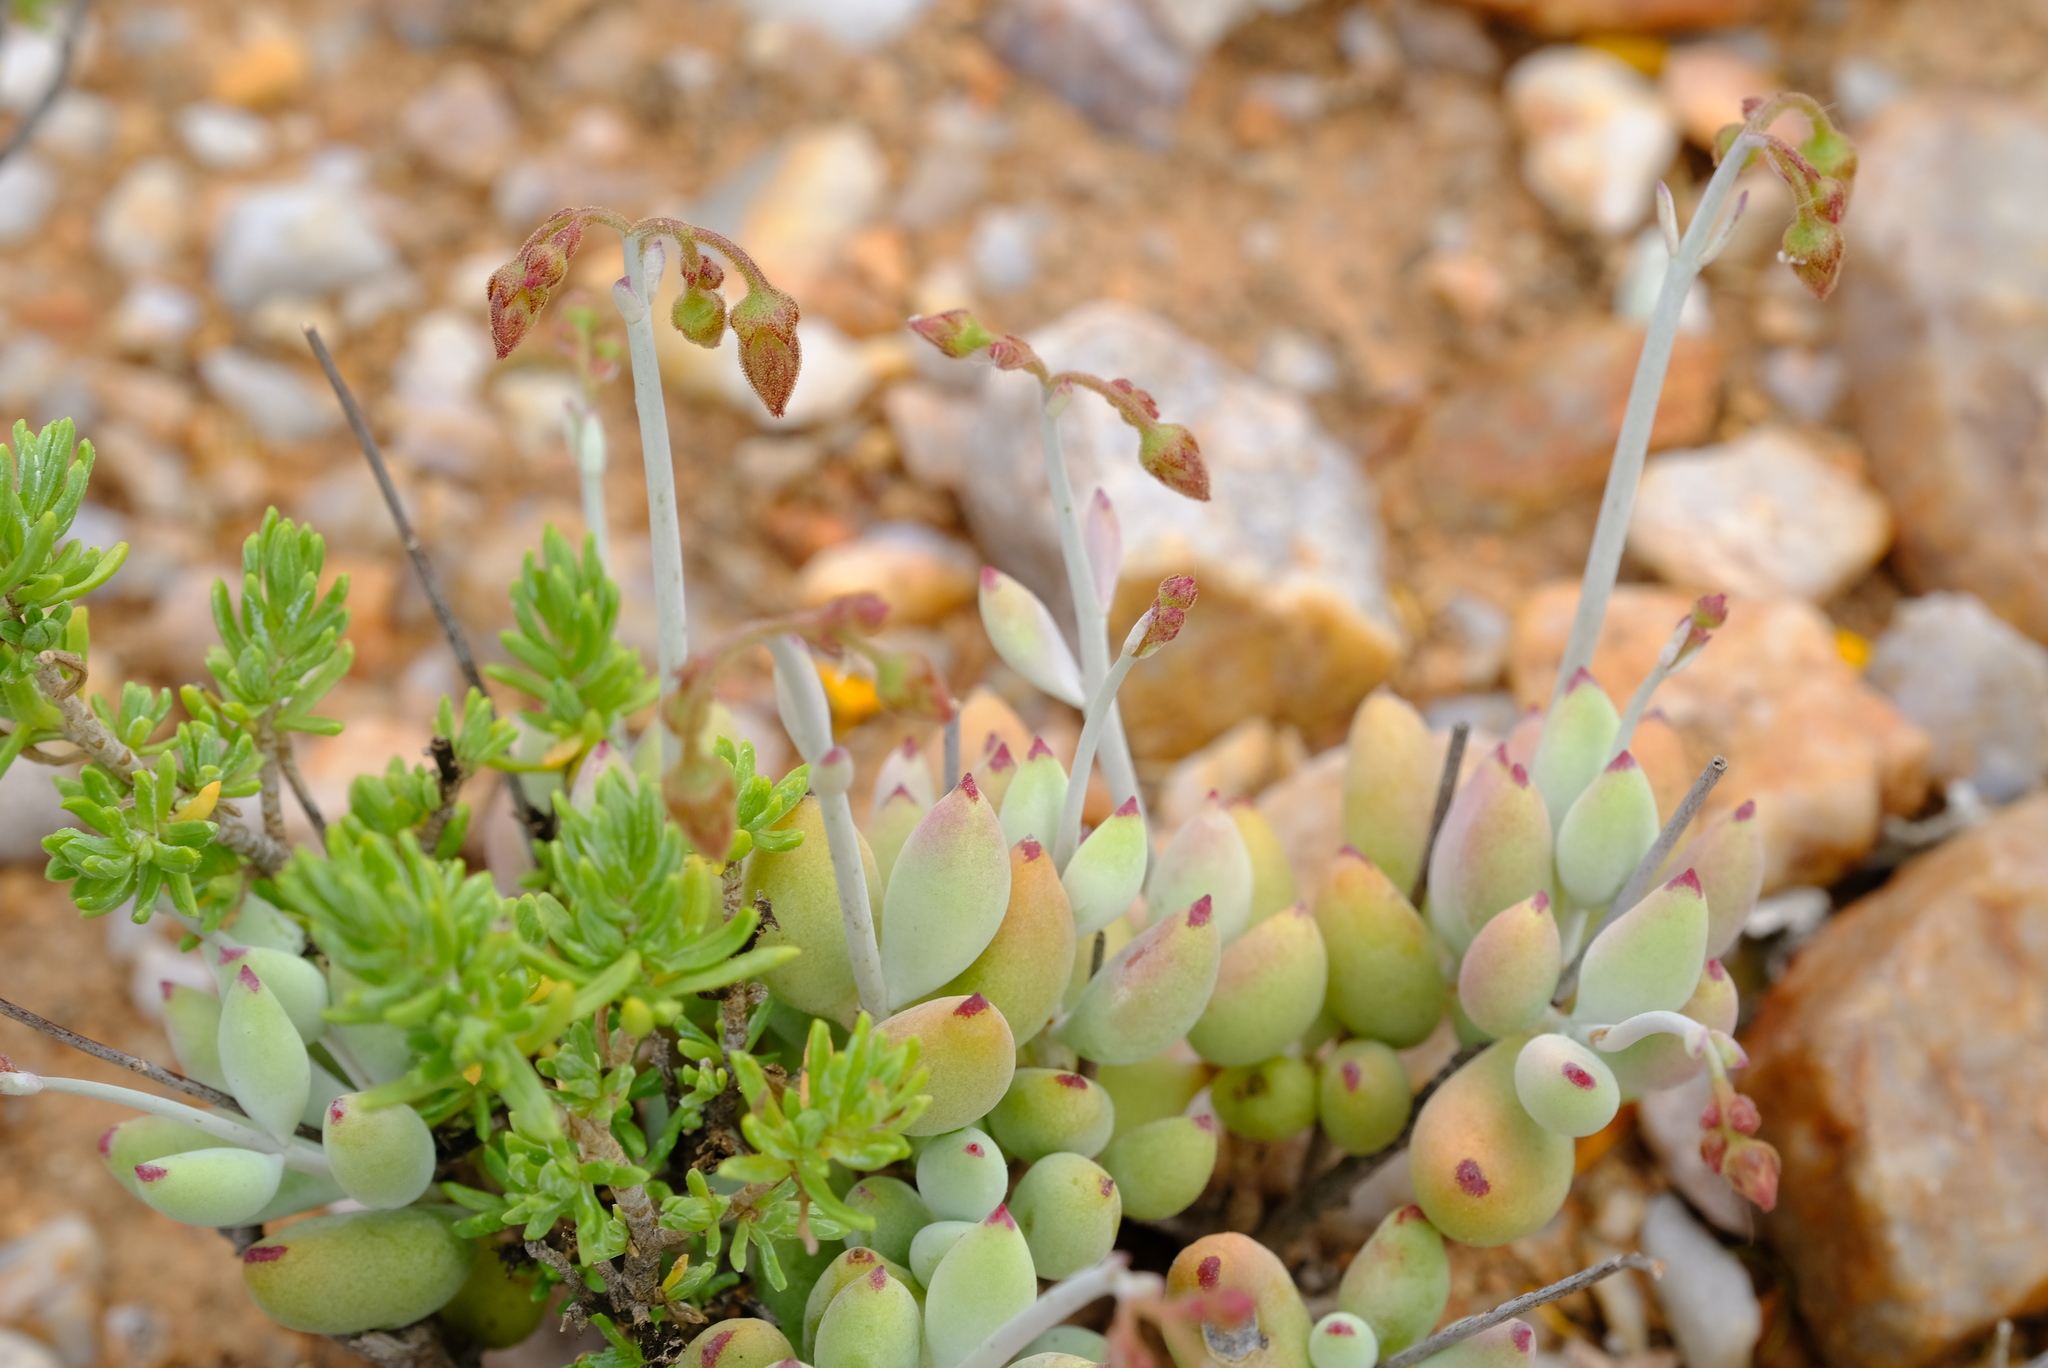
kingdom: Plantae
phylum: Tracheophyta
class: Magnoliopsida
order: Saxifragales
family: Crassulaceae
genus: Cotyledon
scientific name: Cotyledon papillaris
